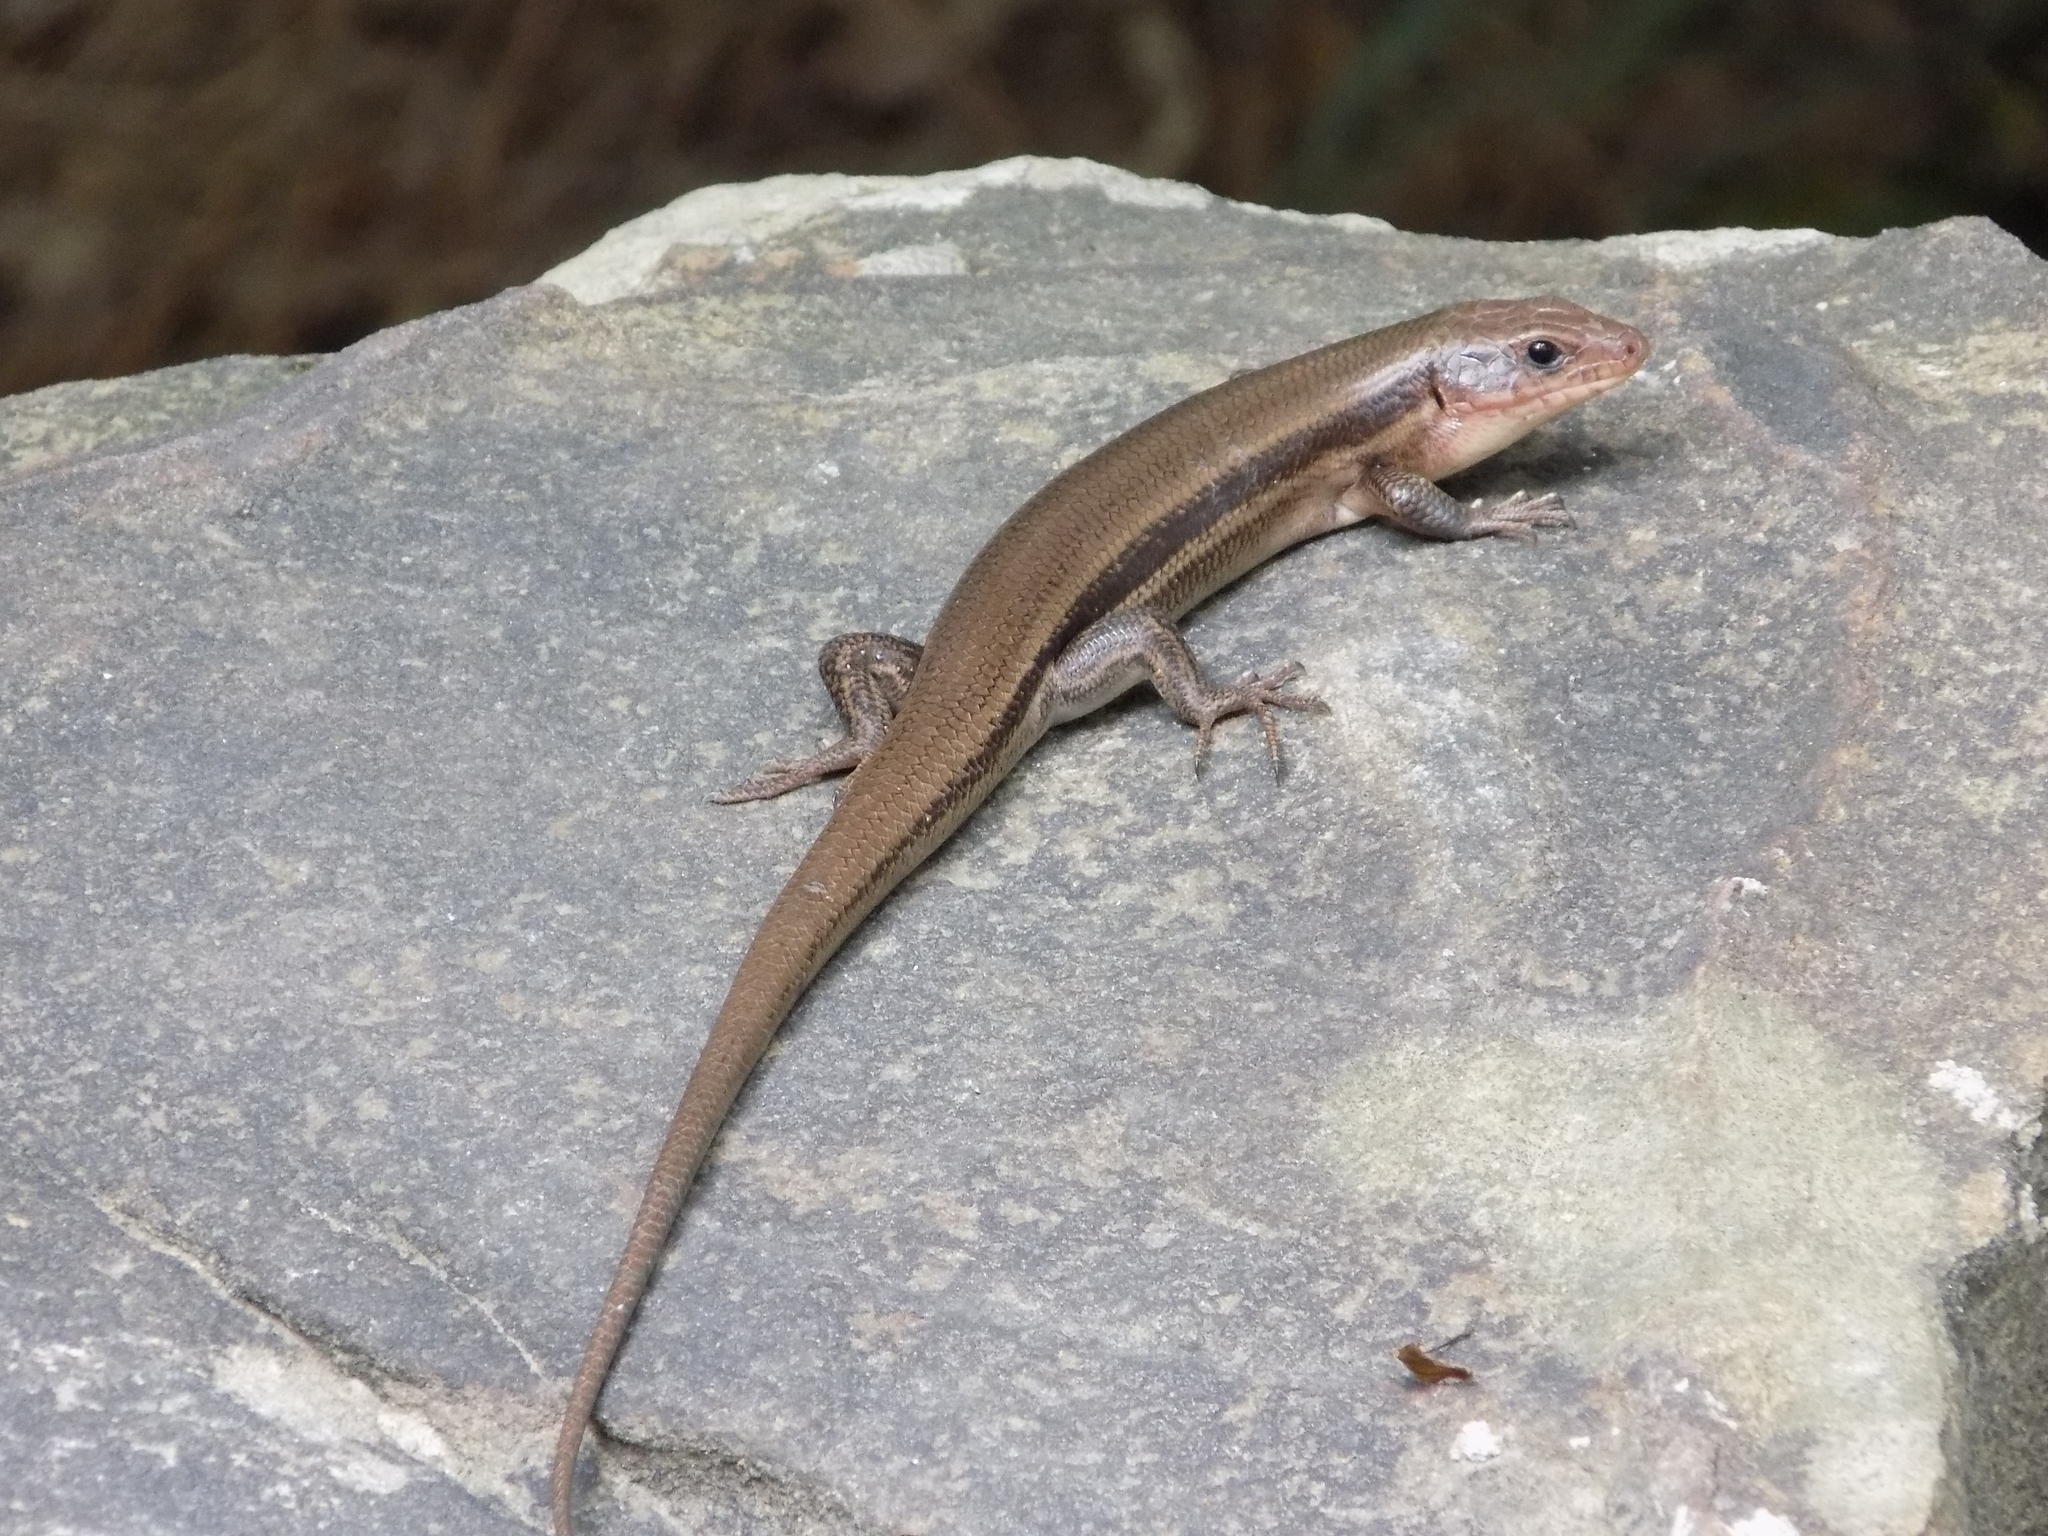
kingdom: Animalia
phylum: Chordata
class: Squamata
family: Scincidae
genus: Plestiodon
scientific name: Plestiodon laticeps
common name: Broadhead skink
